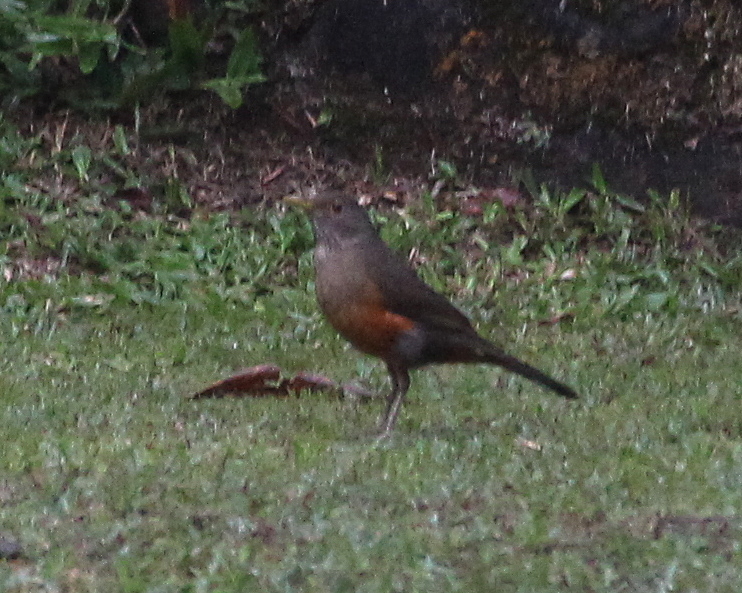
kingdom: Animalia
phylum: Chordata
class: Aves
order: Passeriformes
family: Turdidae
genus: Turdus
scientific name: Turdus rufiventris
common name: Rufous-bellied thrush
